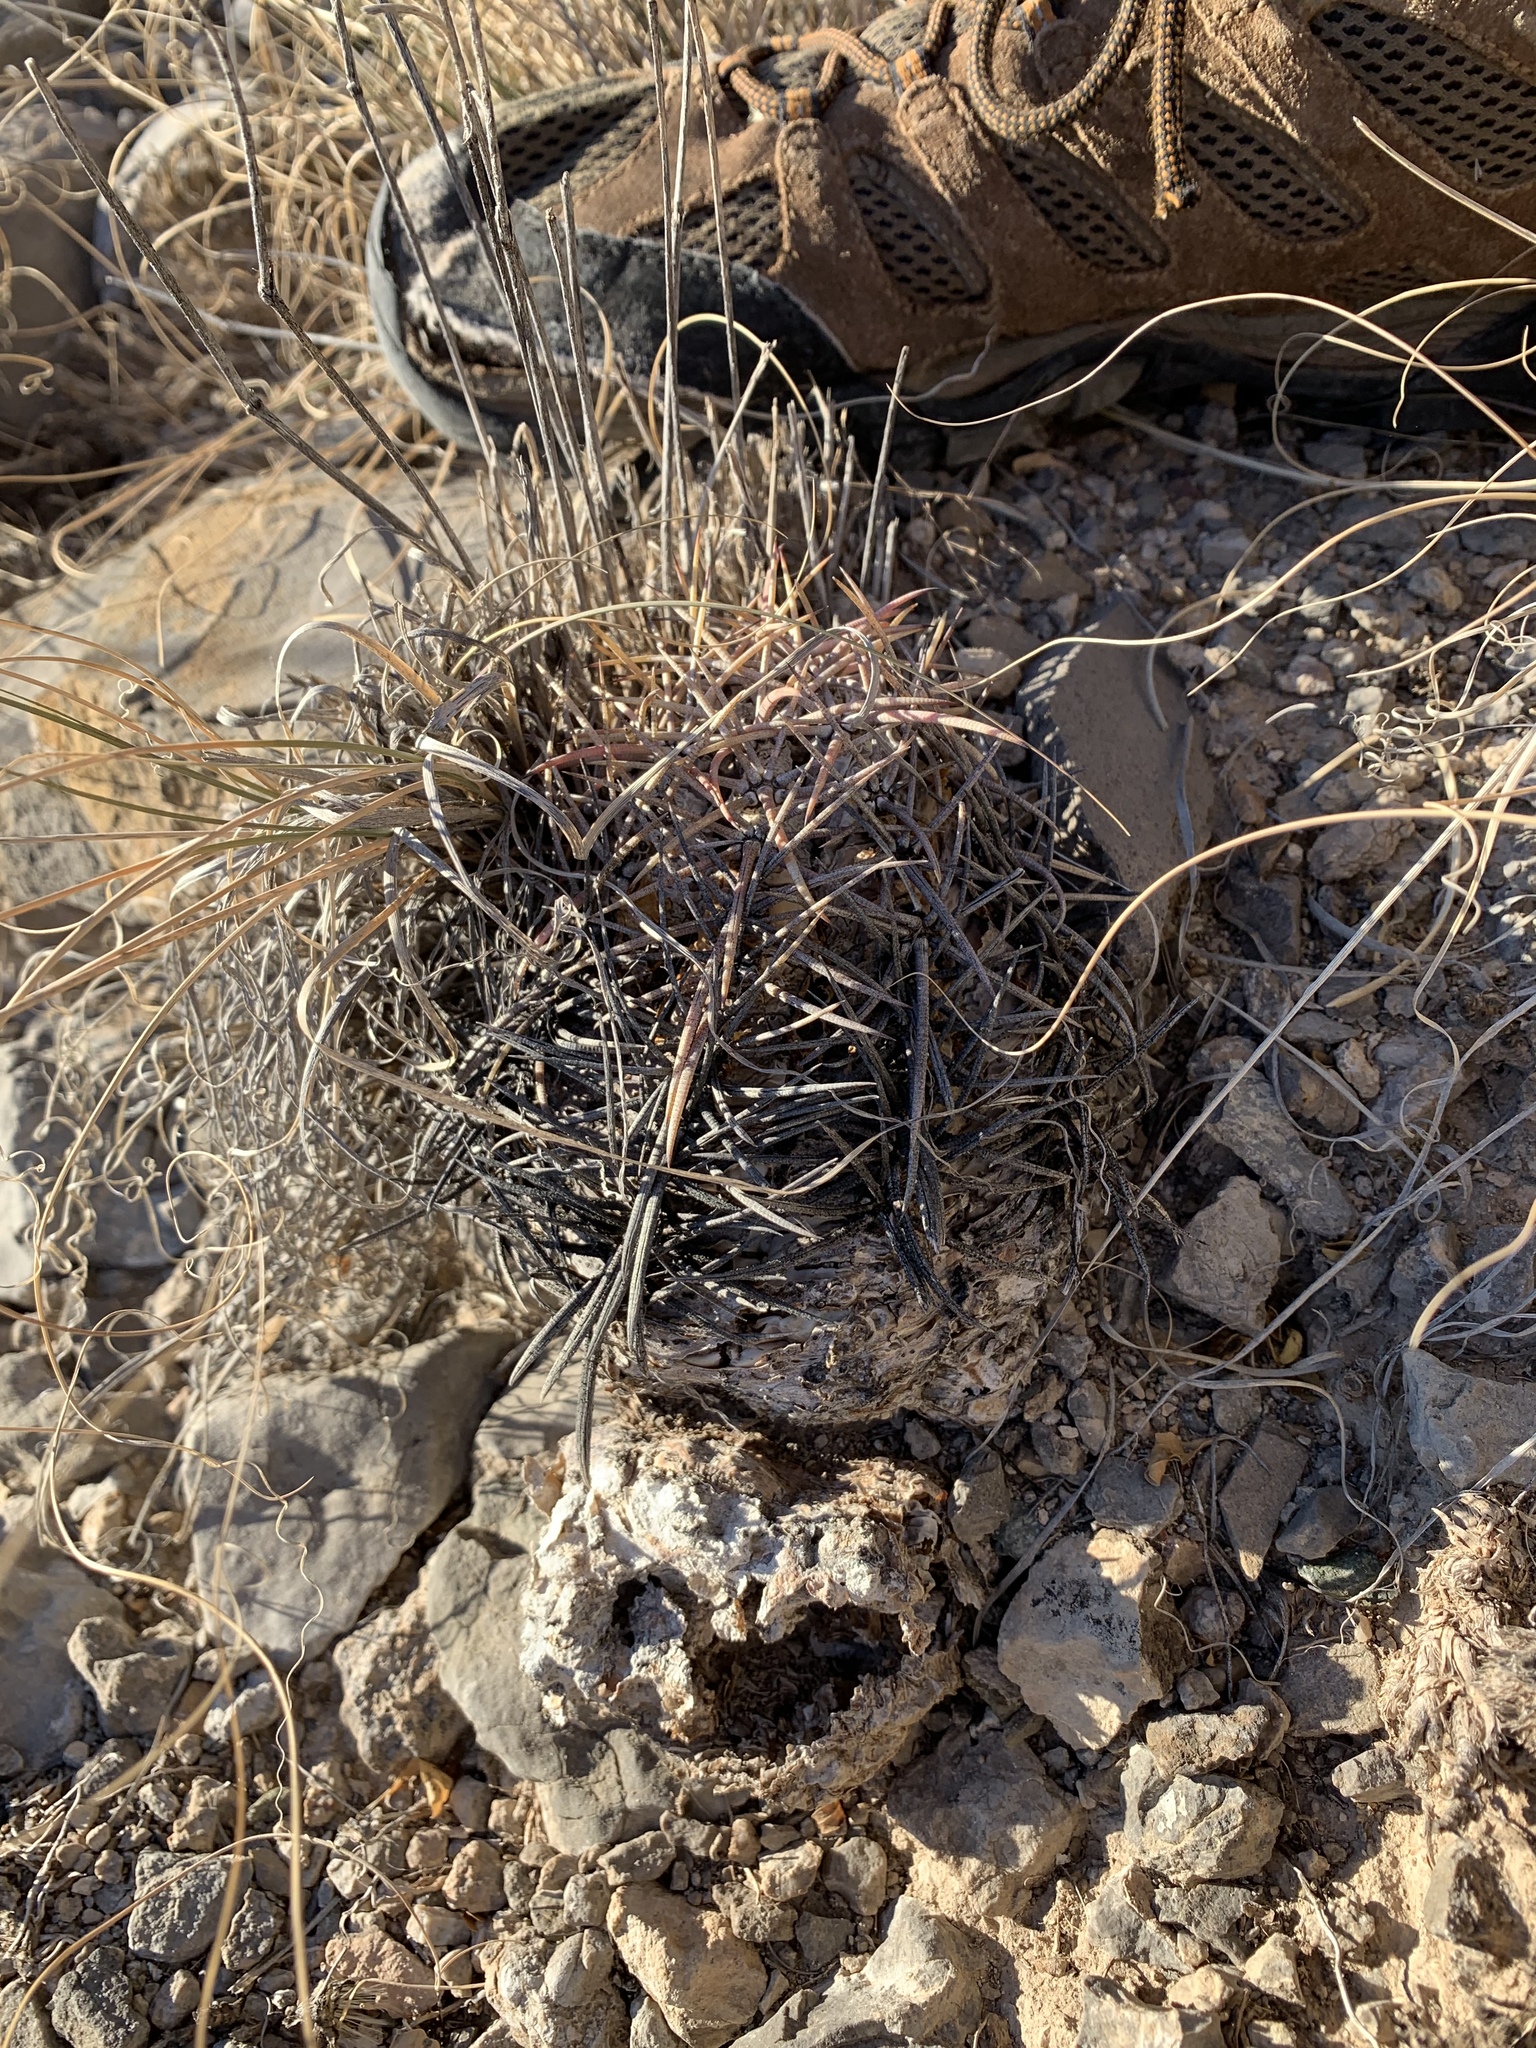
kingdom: Plantae
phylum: Tracheophyta
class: Magnoliopsida
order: Caryophyllales
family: Cactaceae
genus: Ferocactus
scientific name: Ferocactus uncinatus
